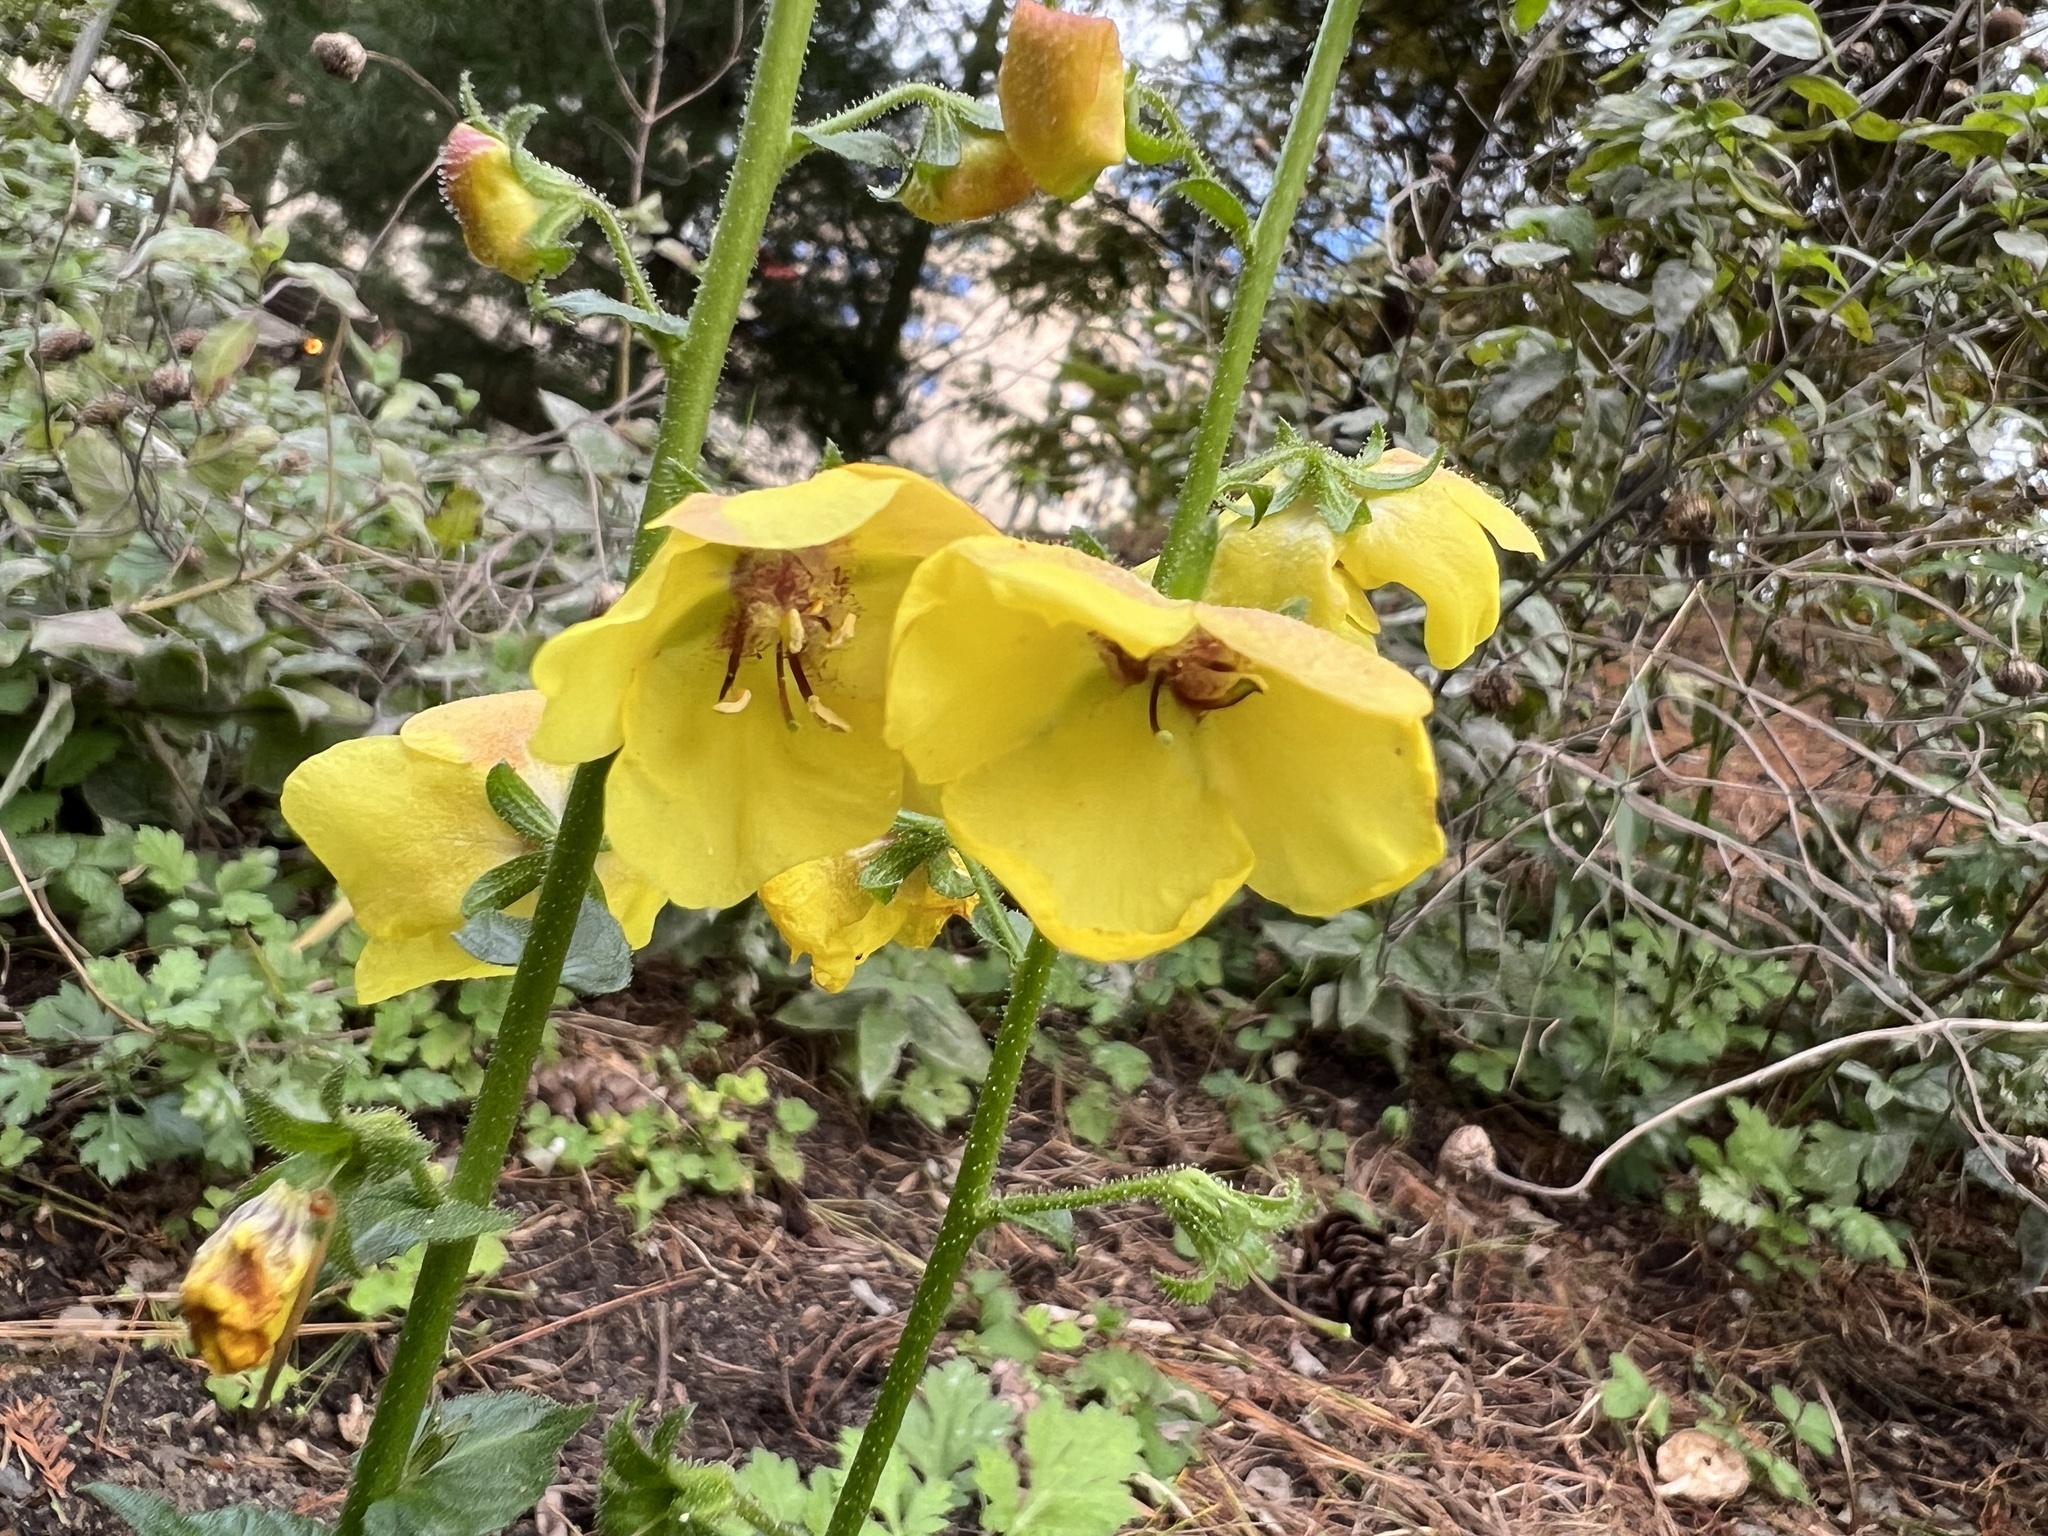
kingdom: Plantae
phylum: Tracheophyta
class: Magnoliopsida
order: Lamiales
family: Scrophulariaceae
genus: Verbascum
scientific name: Verbascum blattaria
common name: Moth mullein
